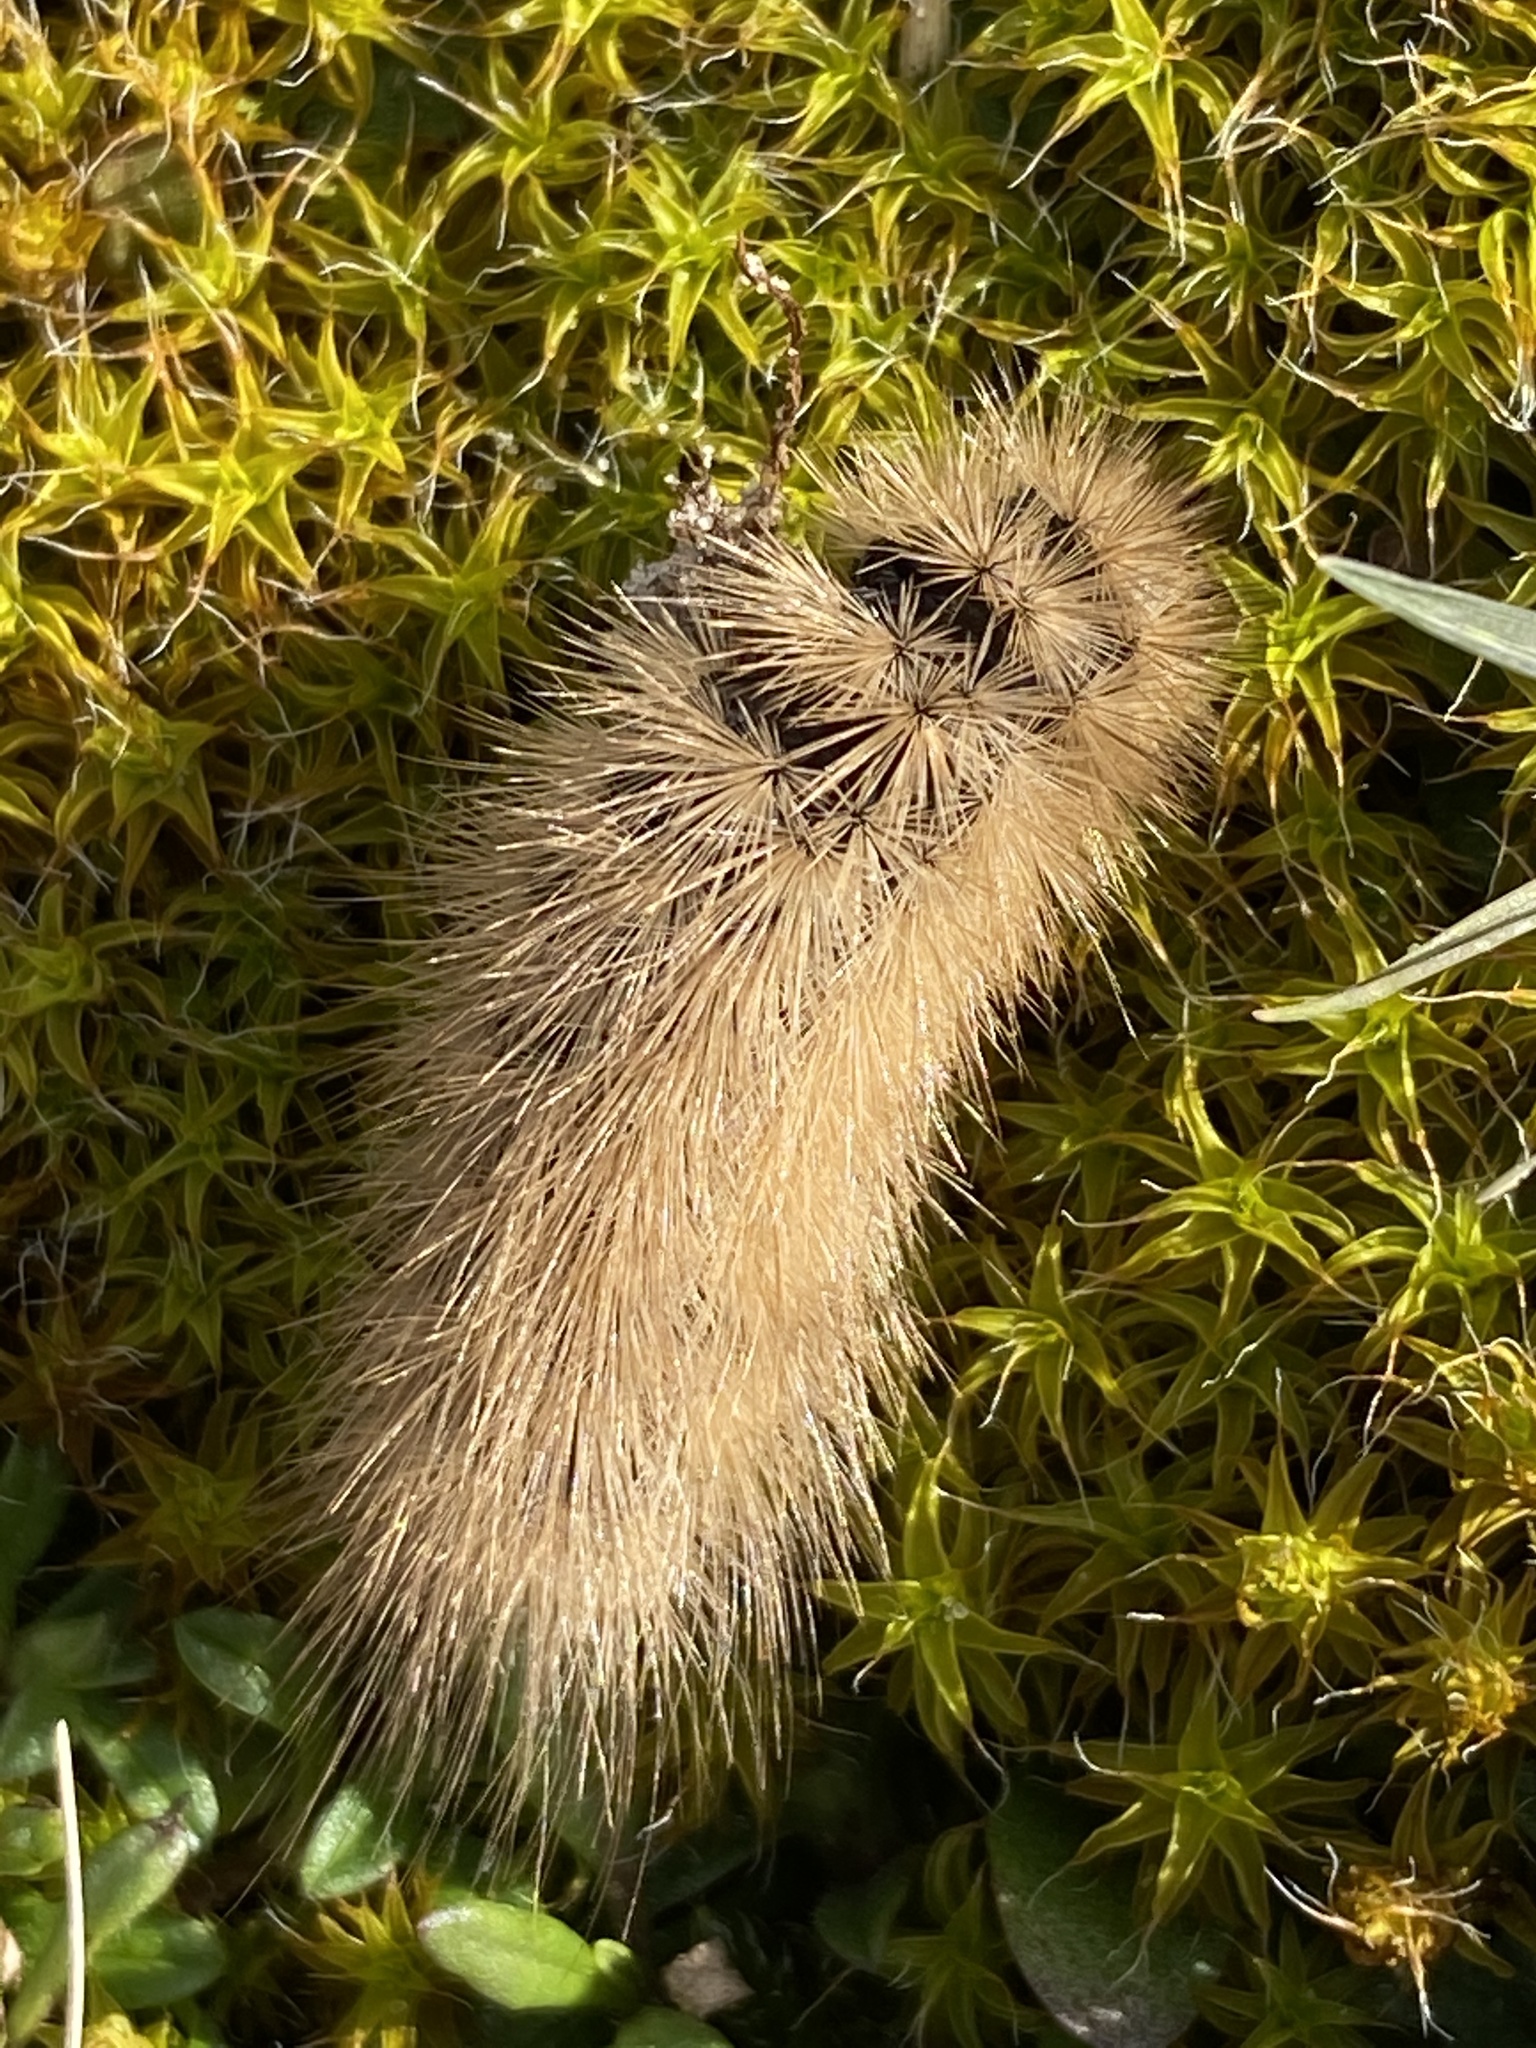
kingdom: Animalia
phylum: Arthropoda
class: Insecta
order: Lepidoptera
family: Erebidae
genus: Phragmatobia
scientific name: Phragmatobia fuliginosa
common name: Ruby tiger
